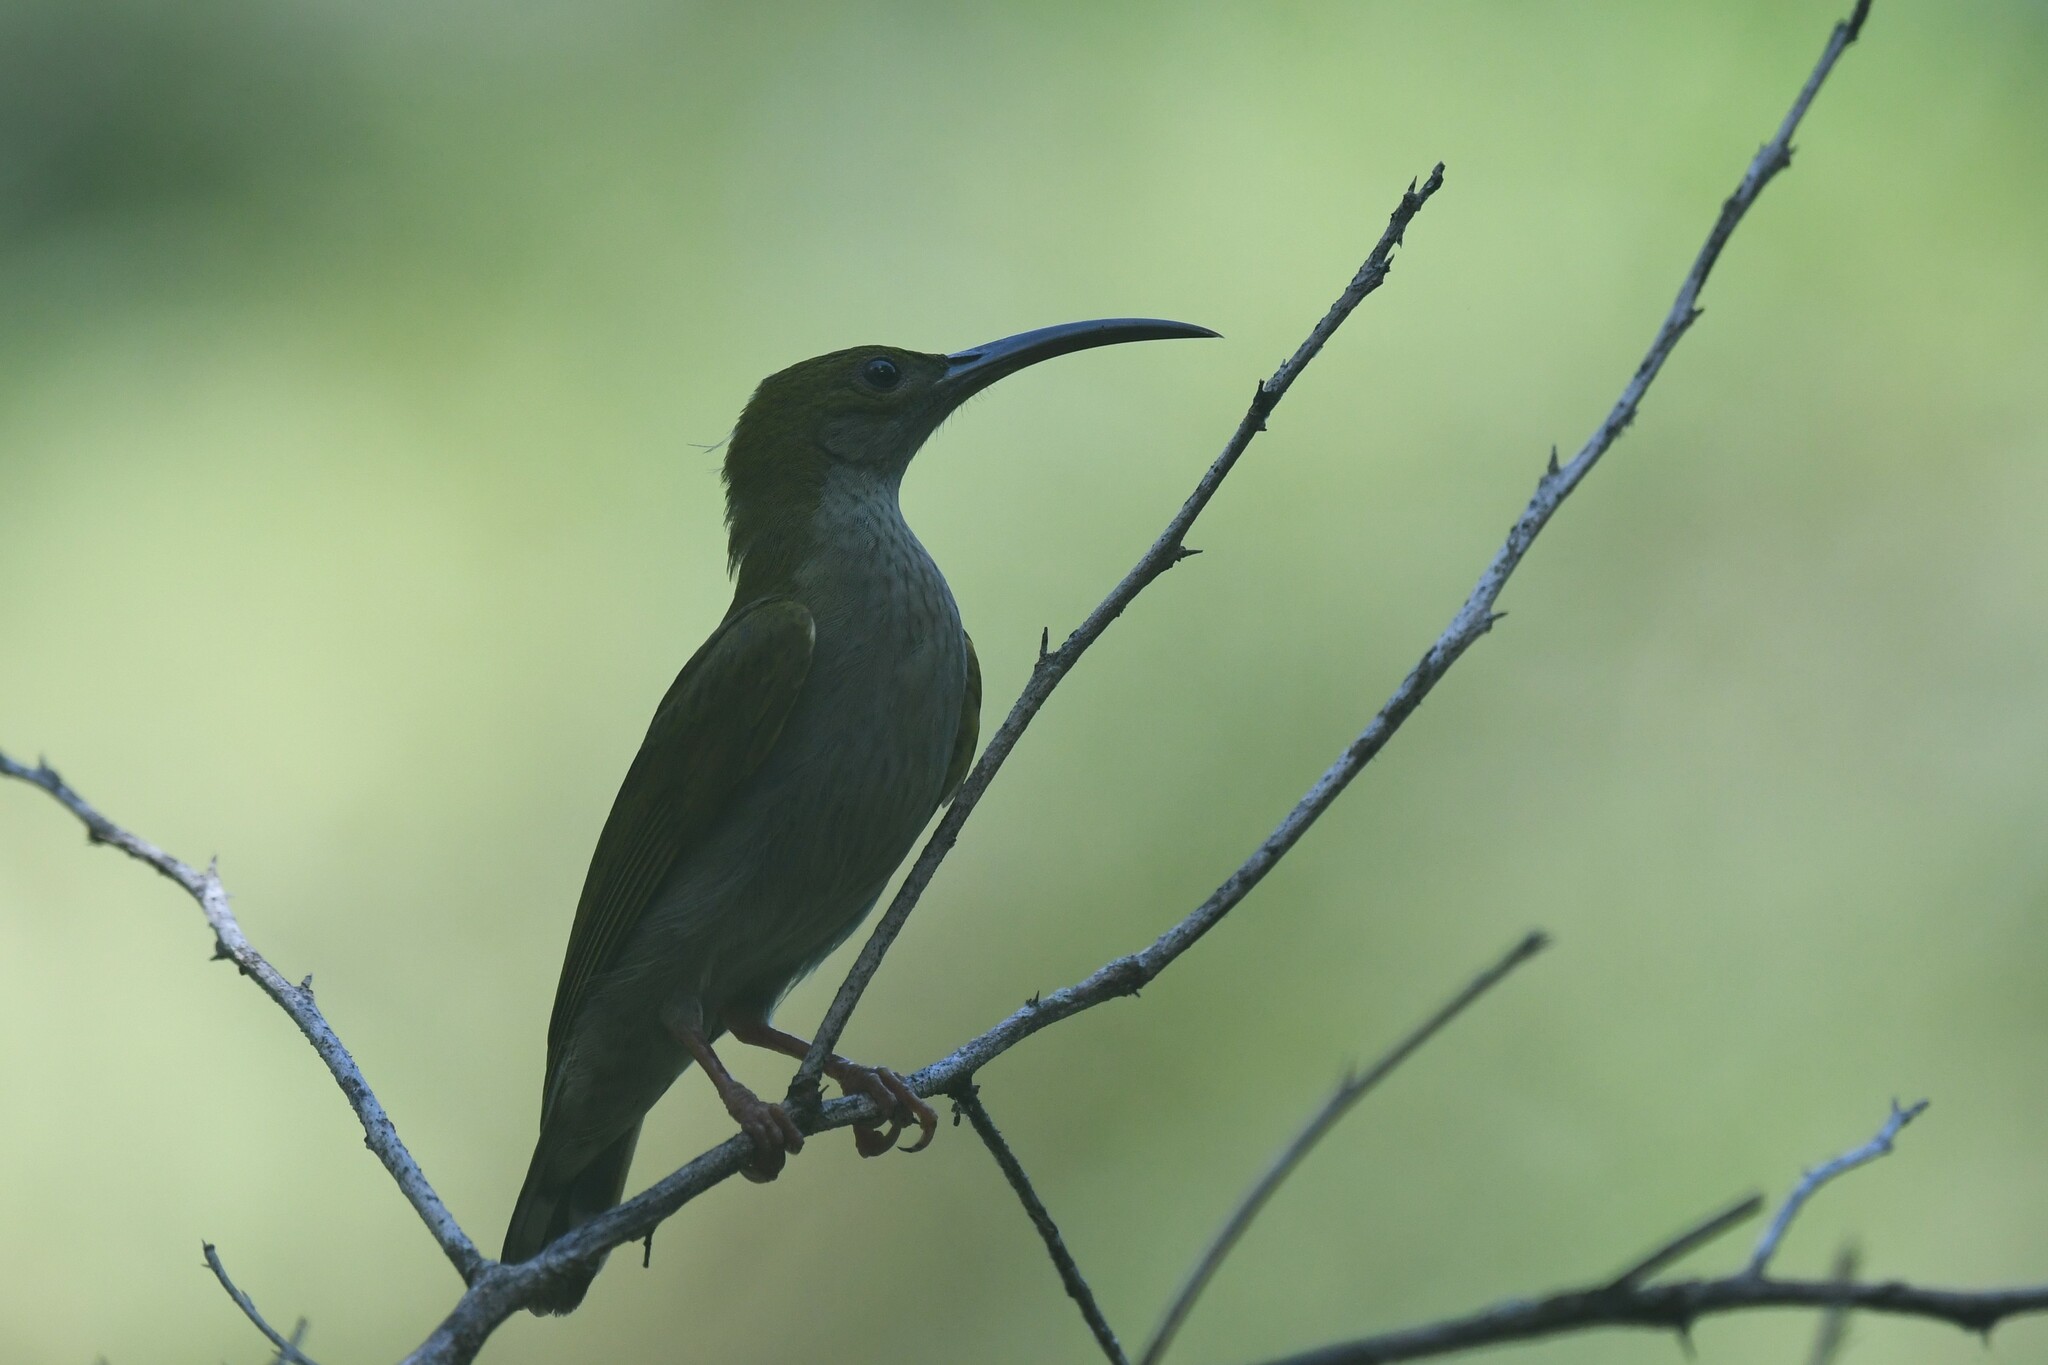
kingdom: Animalia
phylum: Chordata
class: Aves
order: Passeriformes
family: Nectariniidae
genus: Arachnothera
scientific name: Arachnothera modesta
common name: Grey-breasted spiderhunter
